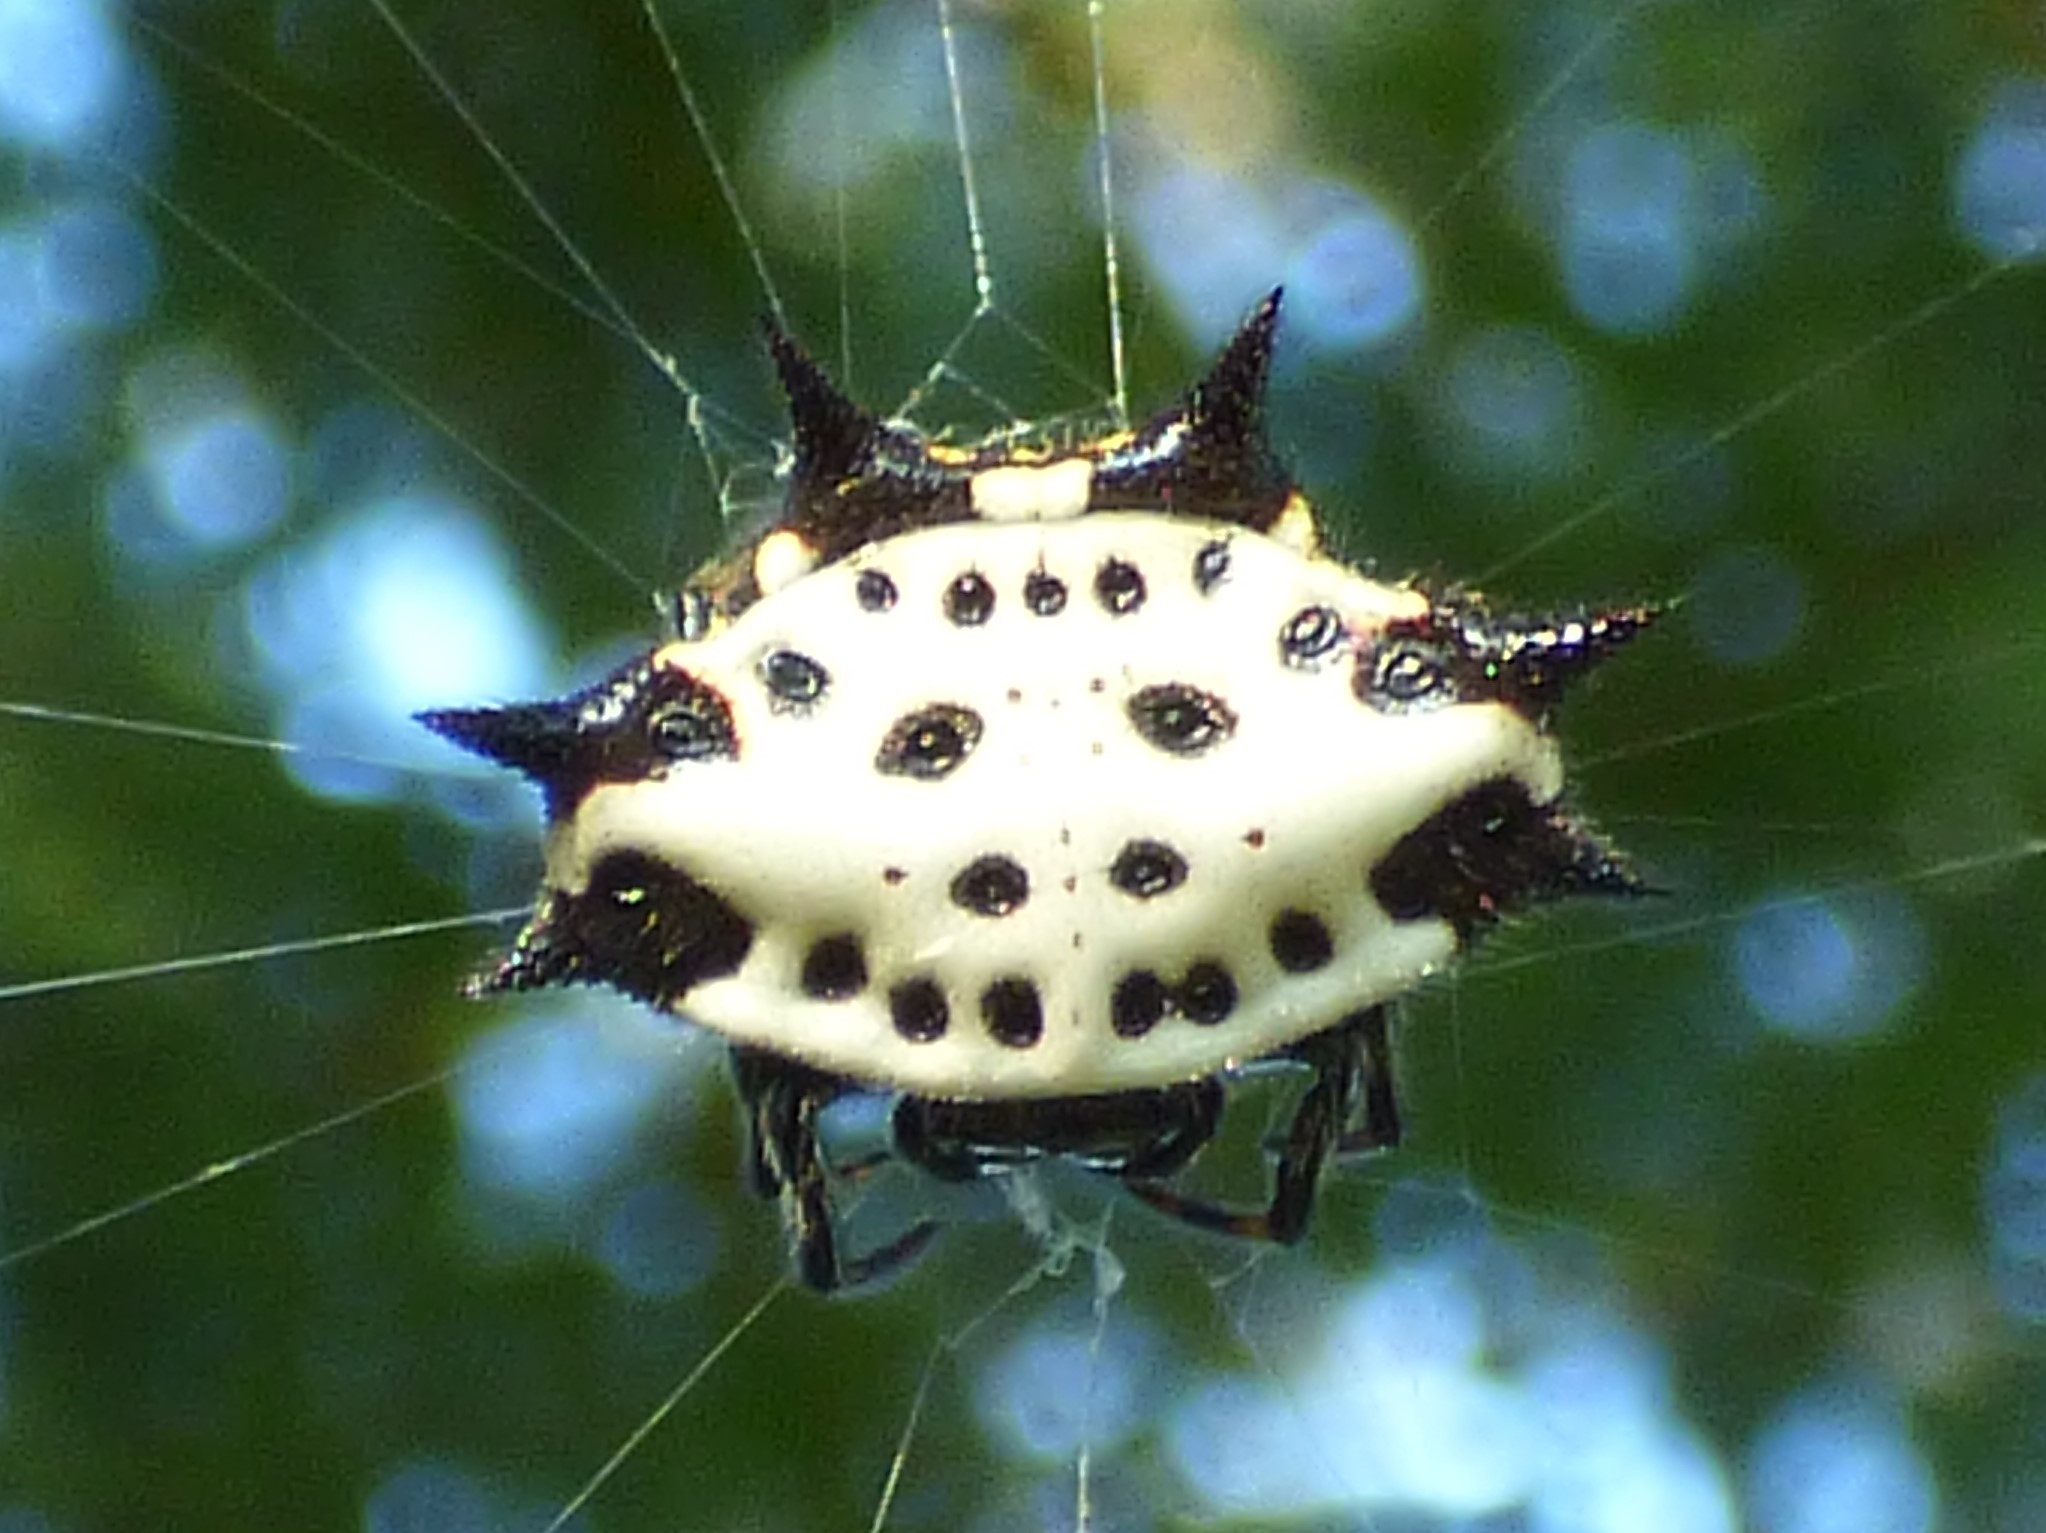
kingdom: Animalia
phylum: Arthropoda
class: Arachnida
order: Araneae
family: Araneidae
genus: Gasteracantha
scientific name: Gasteracantha cancriformis
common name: Orb weavers
